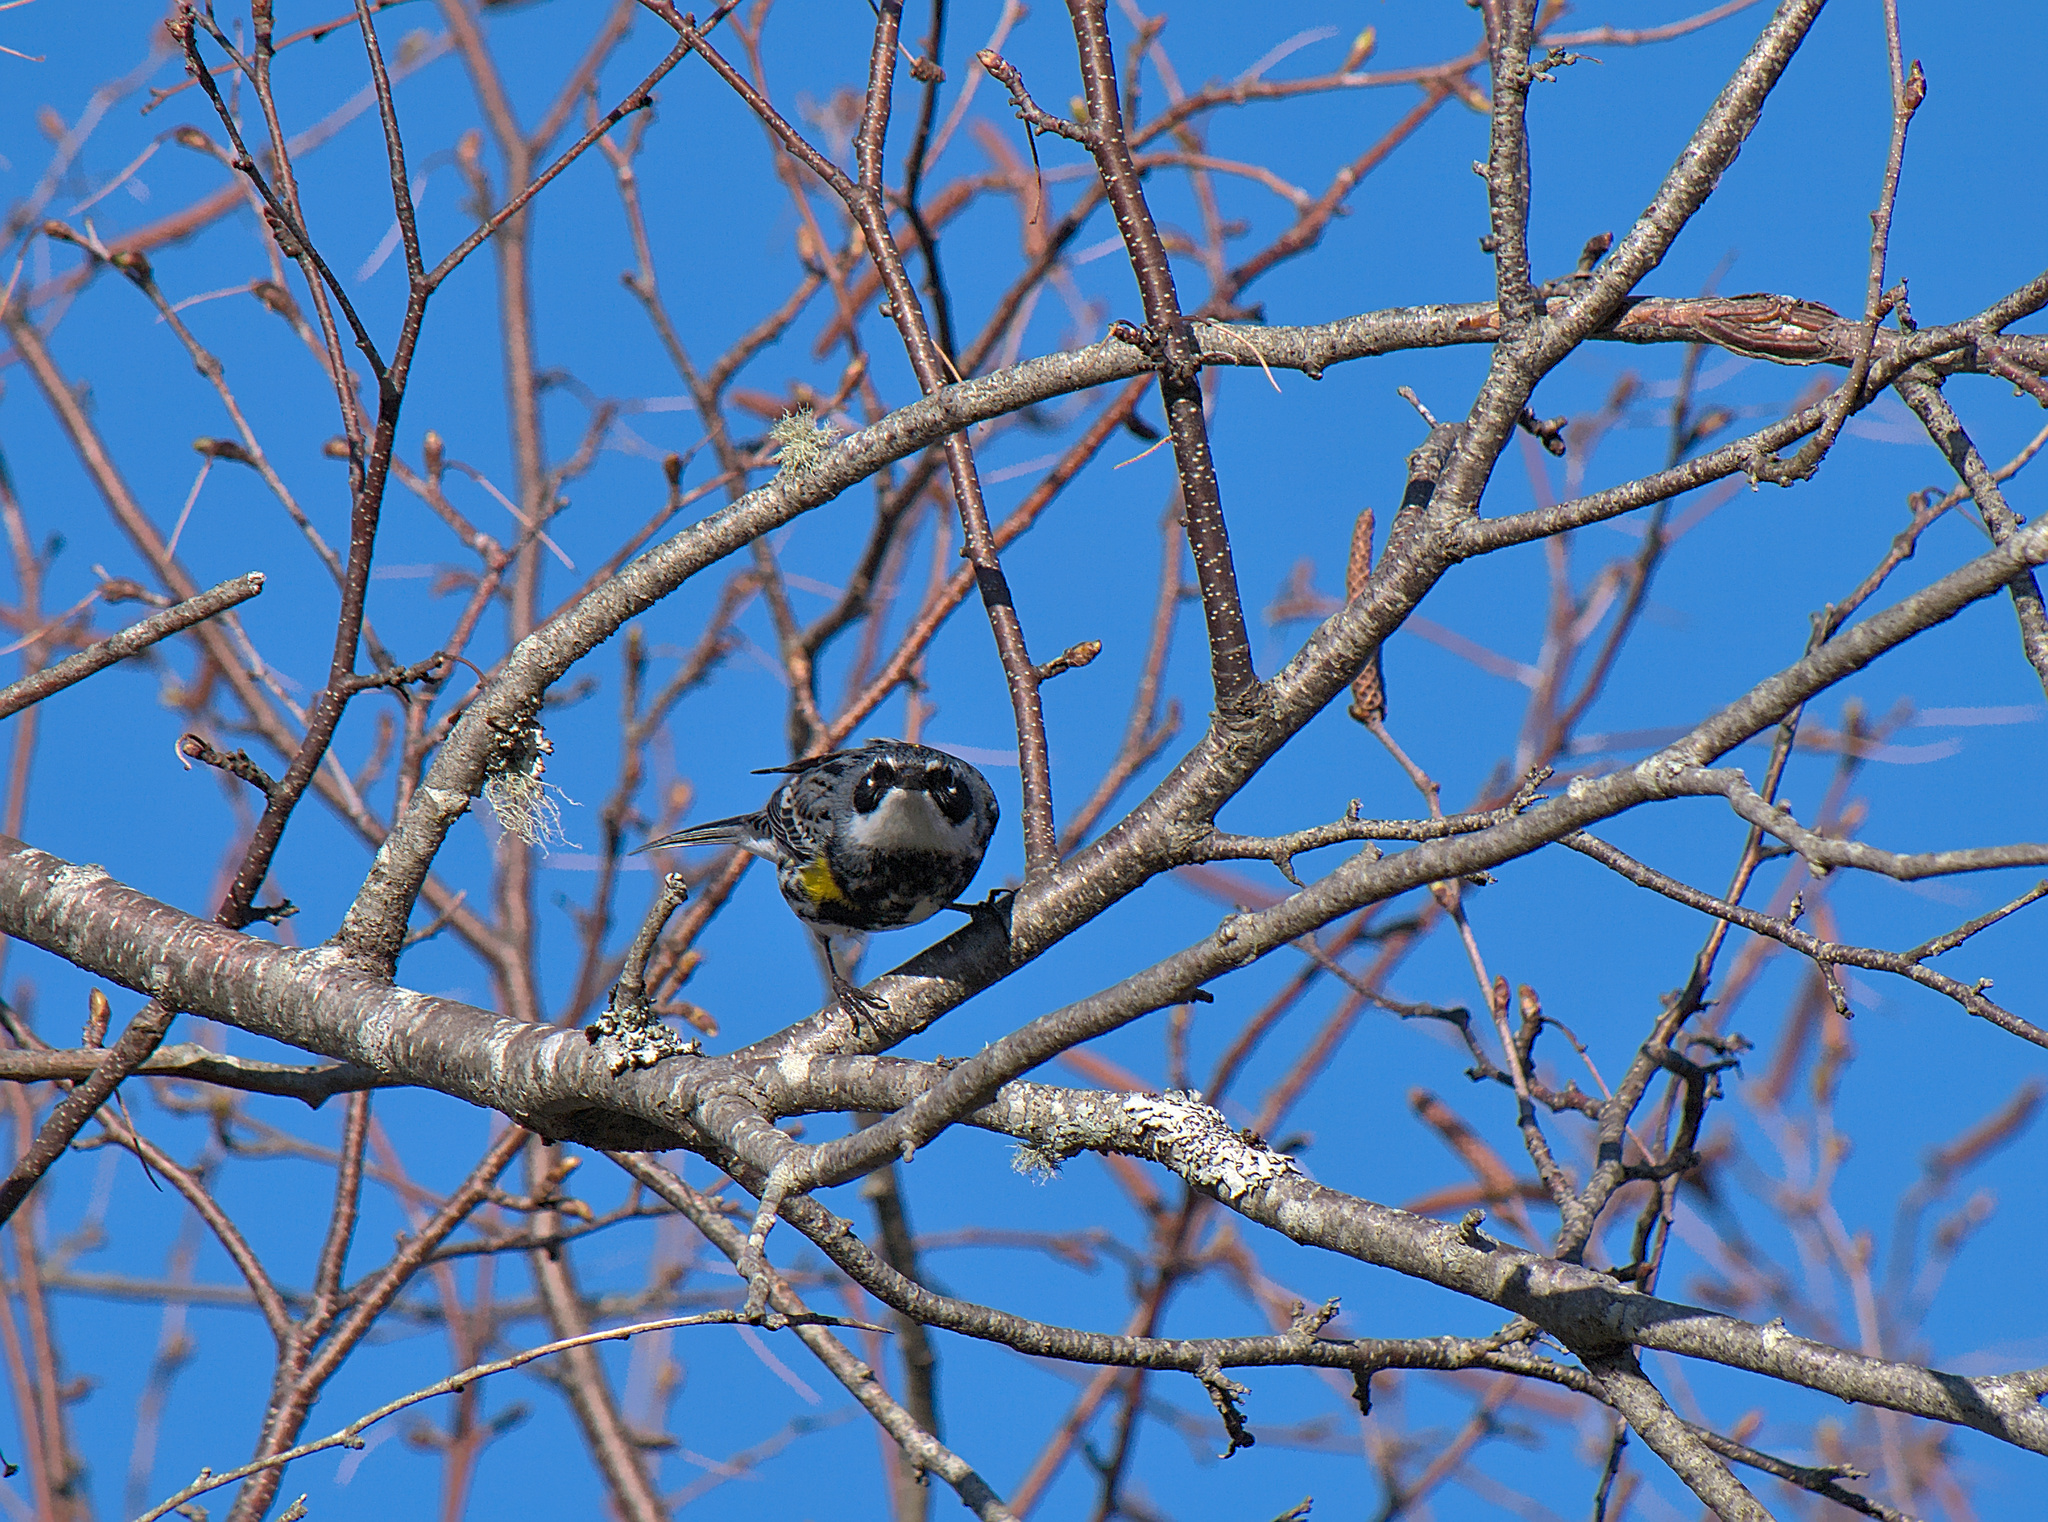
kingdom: Animalia
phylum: Chordata
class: Aves
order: Passeriformes
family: Parulidae
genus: Setophaga
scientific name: Setophaga coronata
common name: Myrtle warbler
